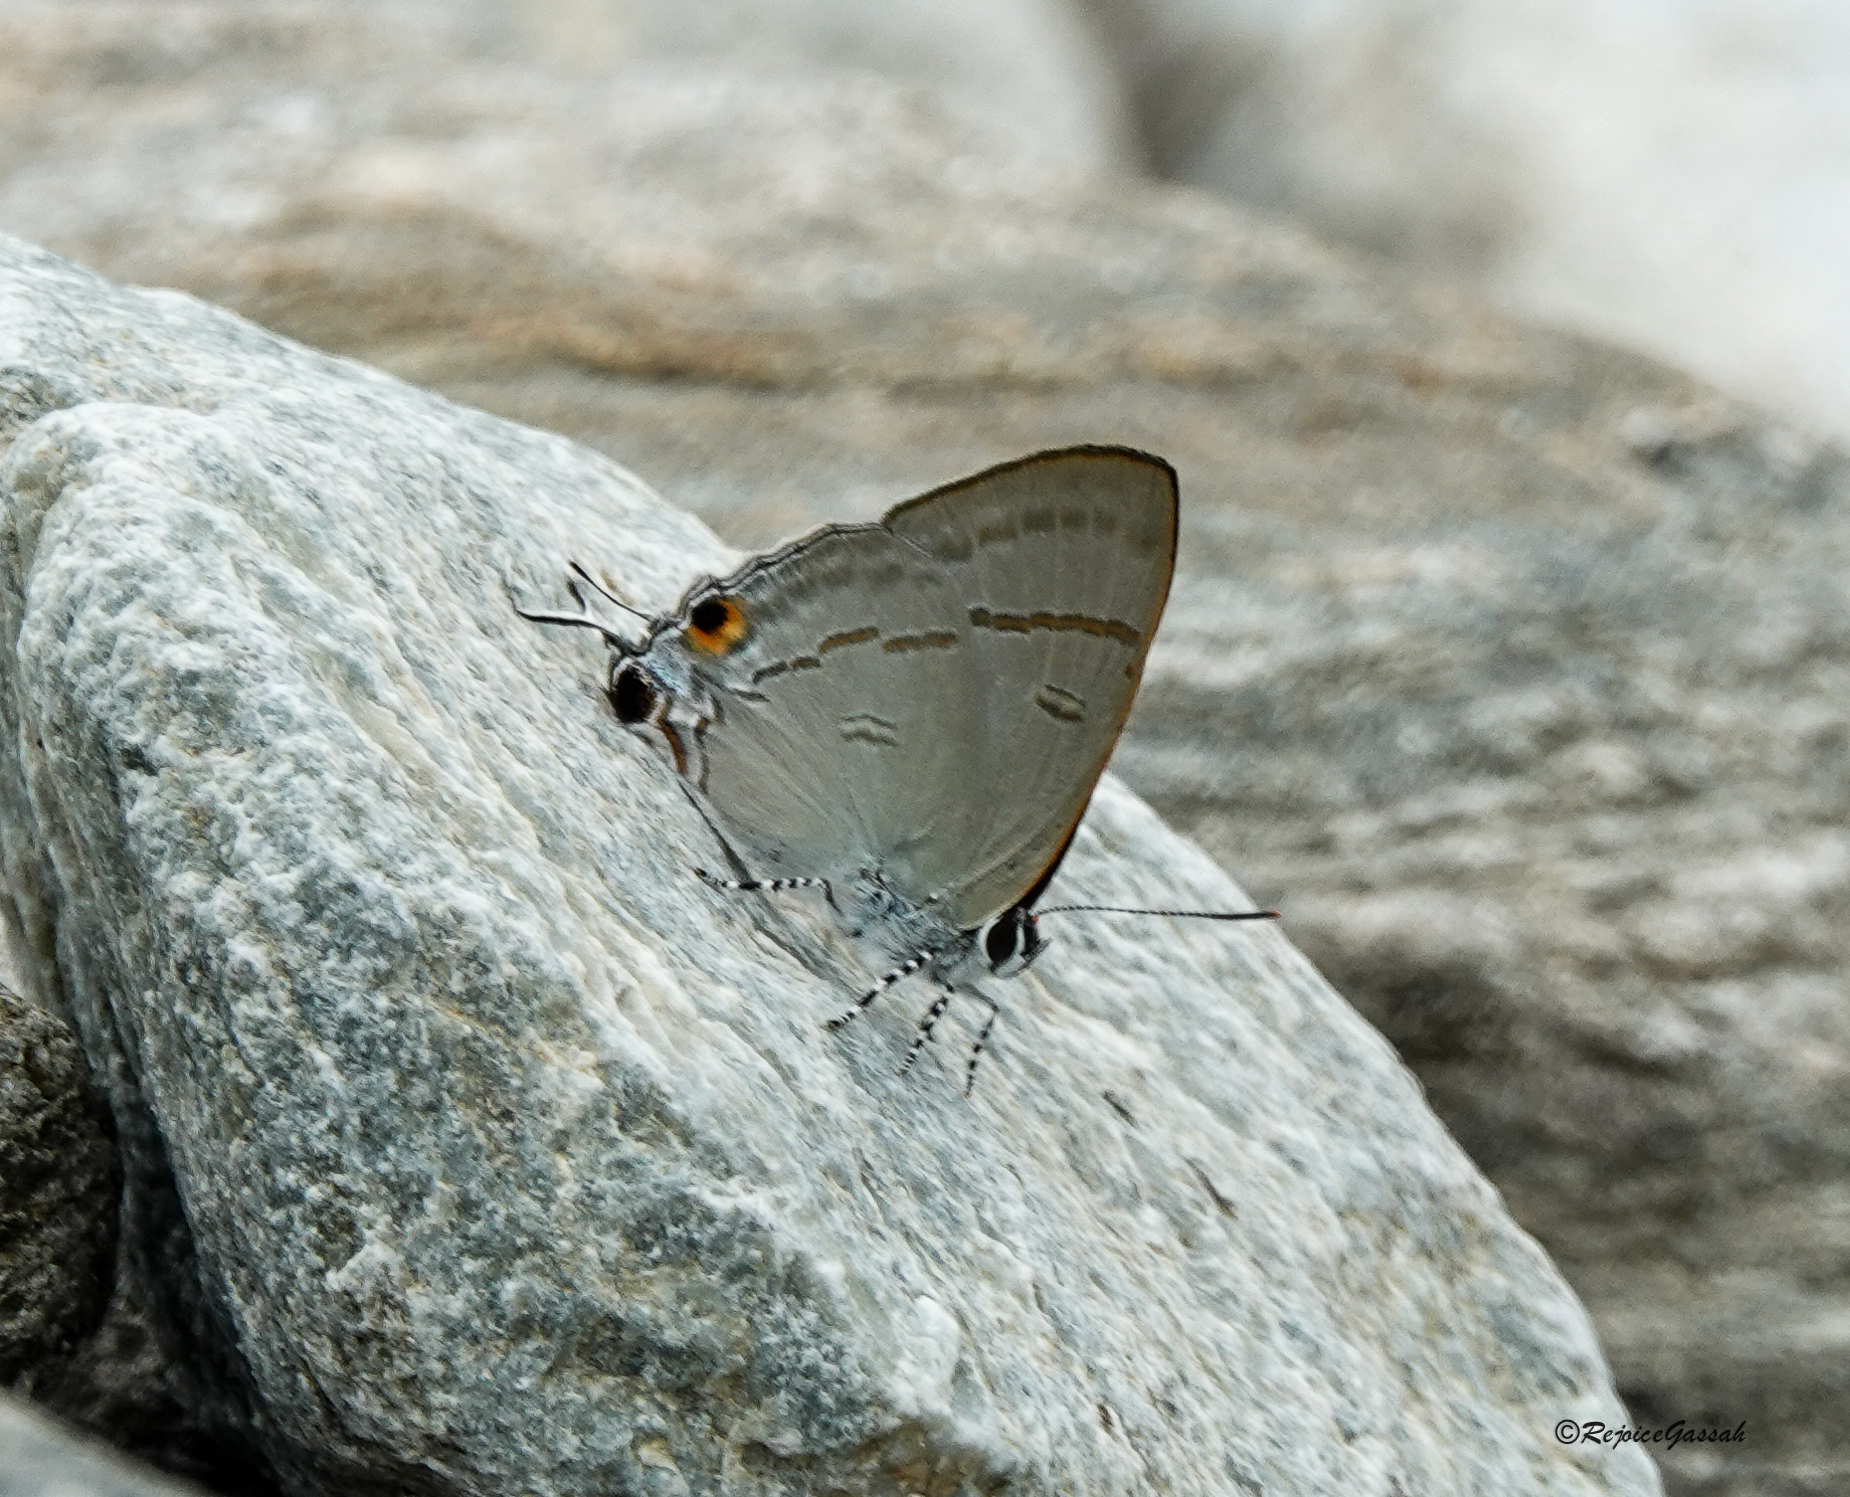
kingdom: Animalia
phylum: Arthropoda
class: Insecta
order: Lepidoptera
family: Lycaenidae
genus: Hypolycaena
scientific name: Hypolycaena erylus
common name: Common tit
